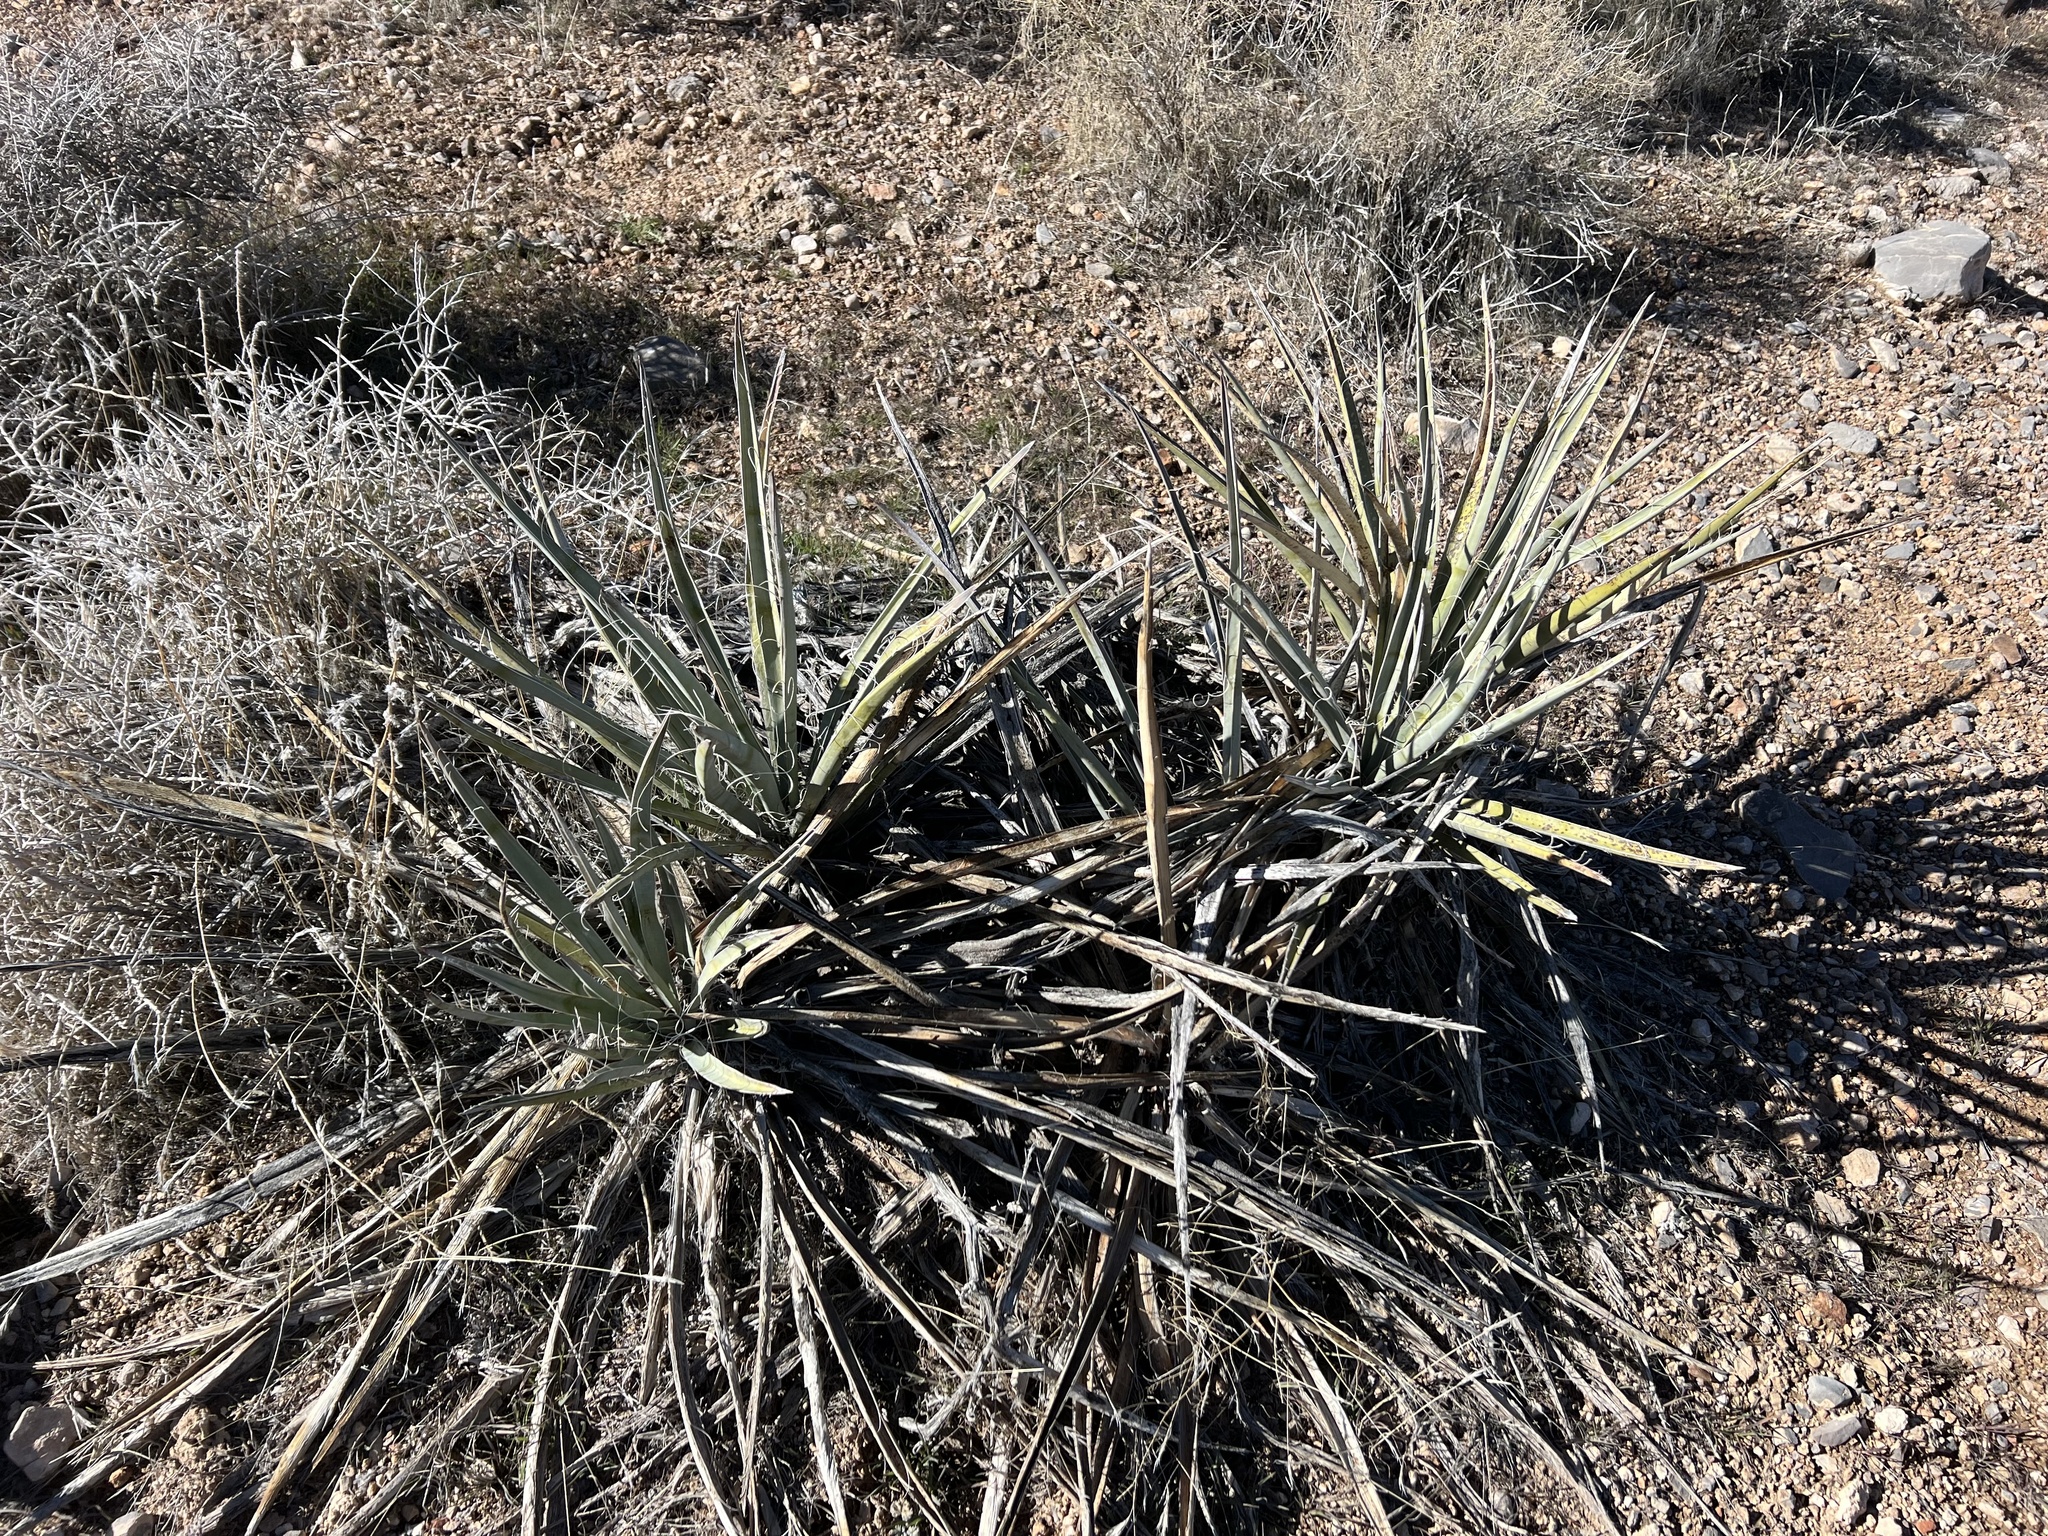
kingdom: Plantae
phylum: Tracheophyta
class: Liliopsida
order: Asparagales
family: Asparagaceae
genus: Yucca
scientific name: Yucca baccata
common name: Banana yucca
